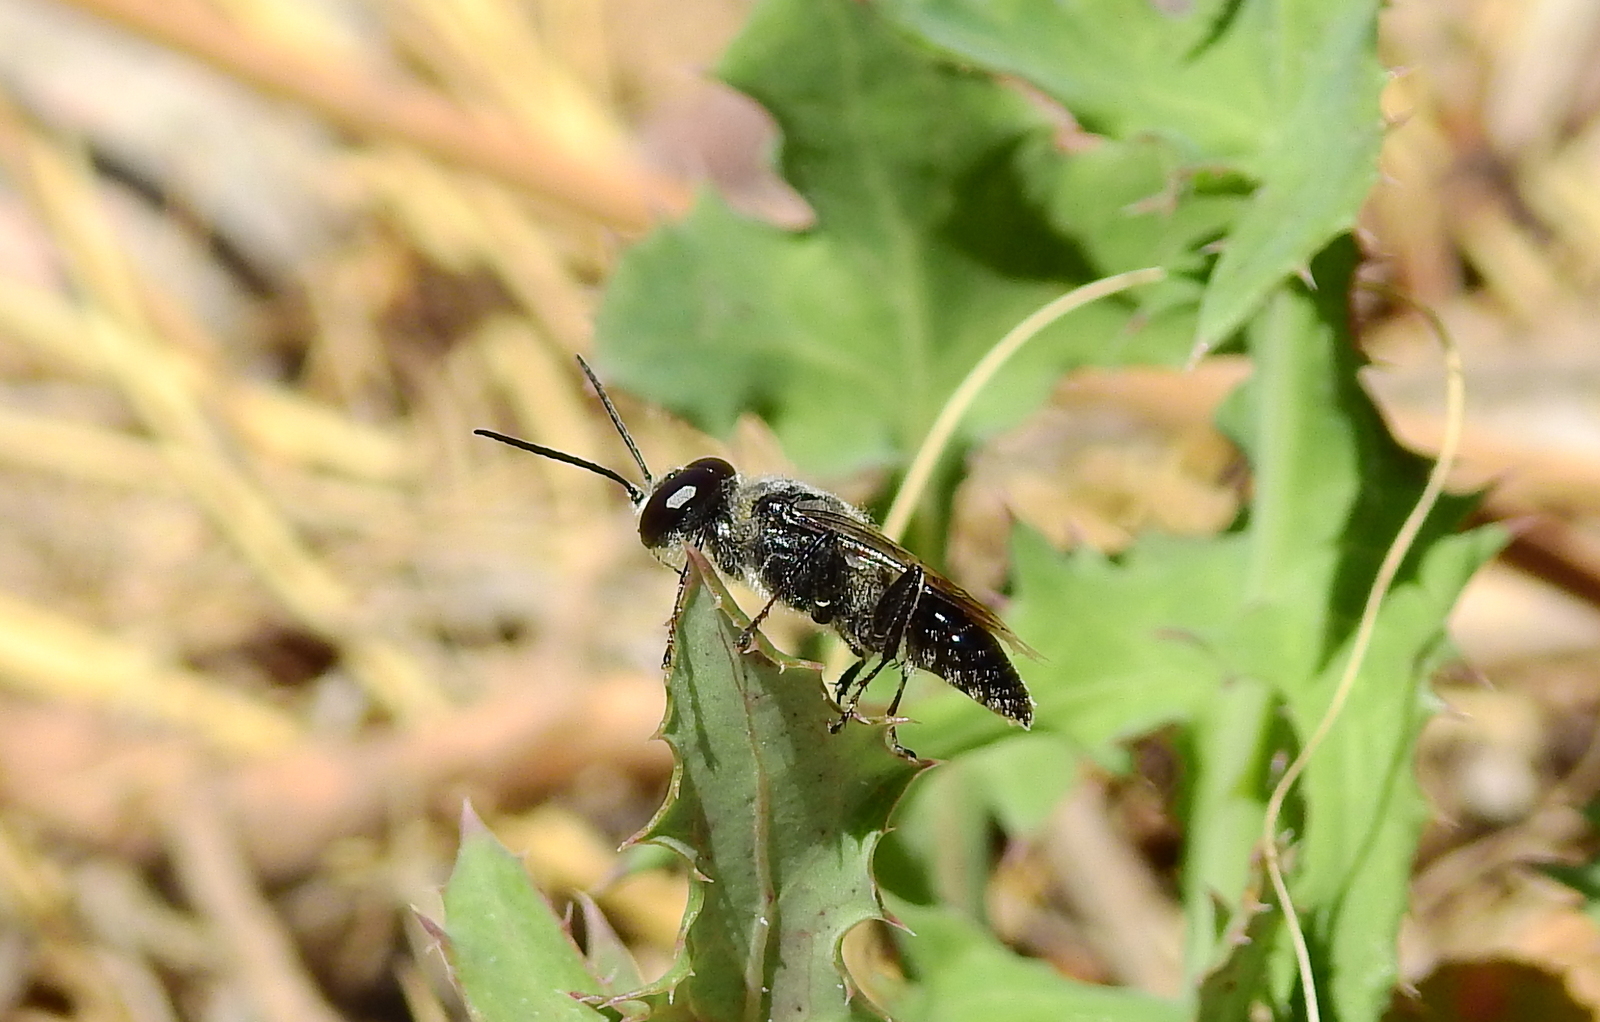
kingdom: Animalia
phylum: Arthropoda
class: Insecta
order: Hymenoptera
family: Crabronidae
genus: Astata
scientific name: Astata lugens
